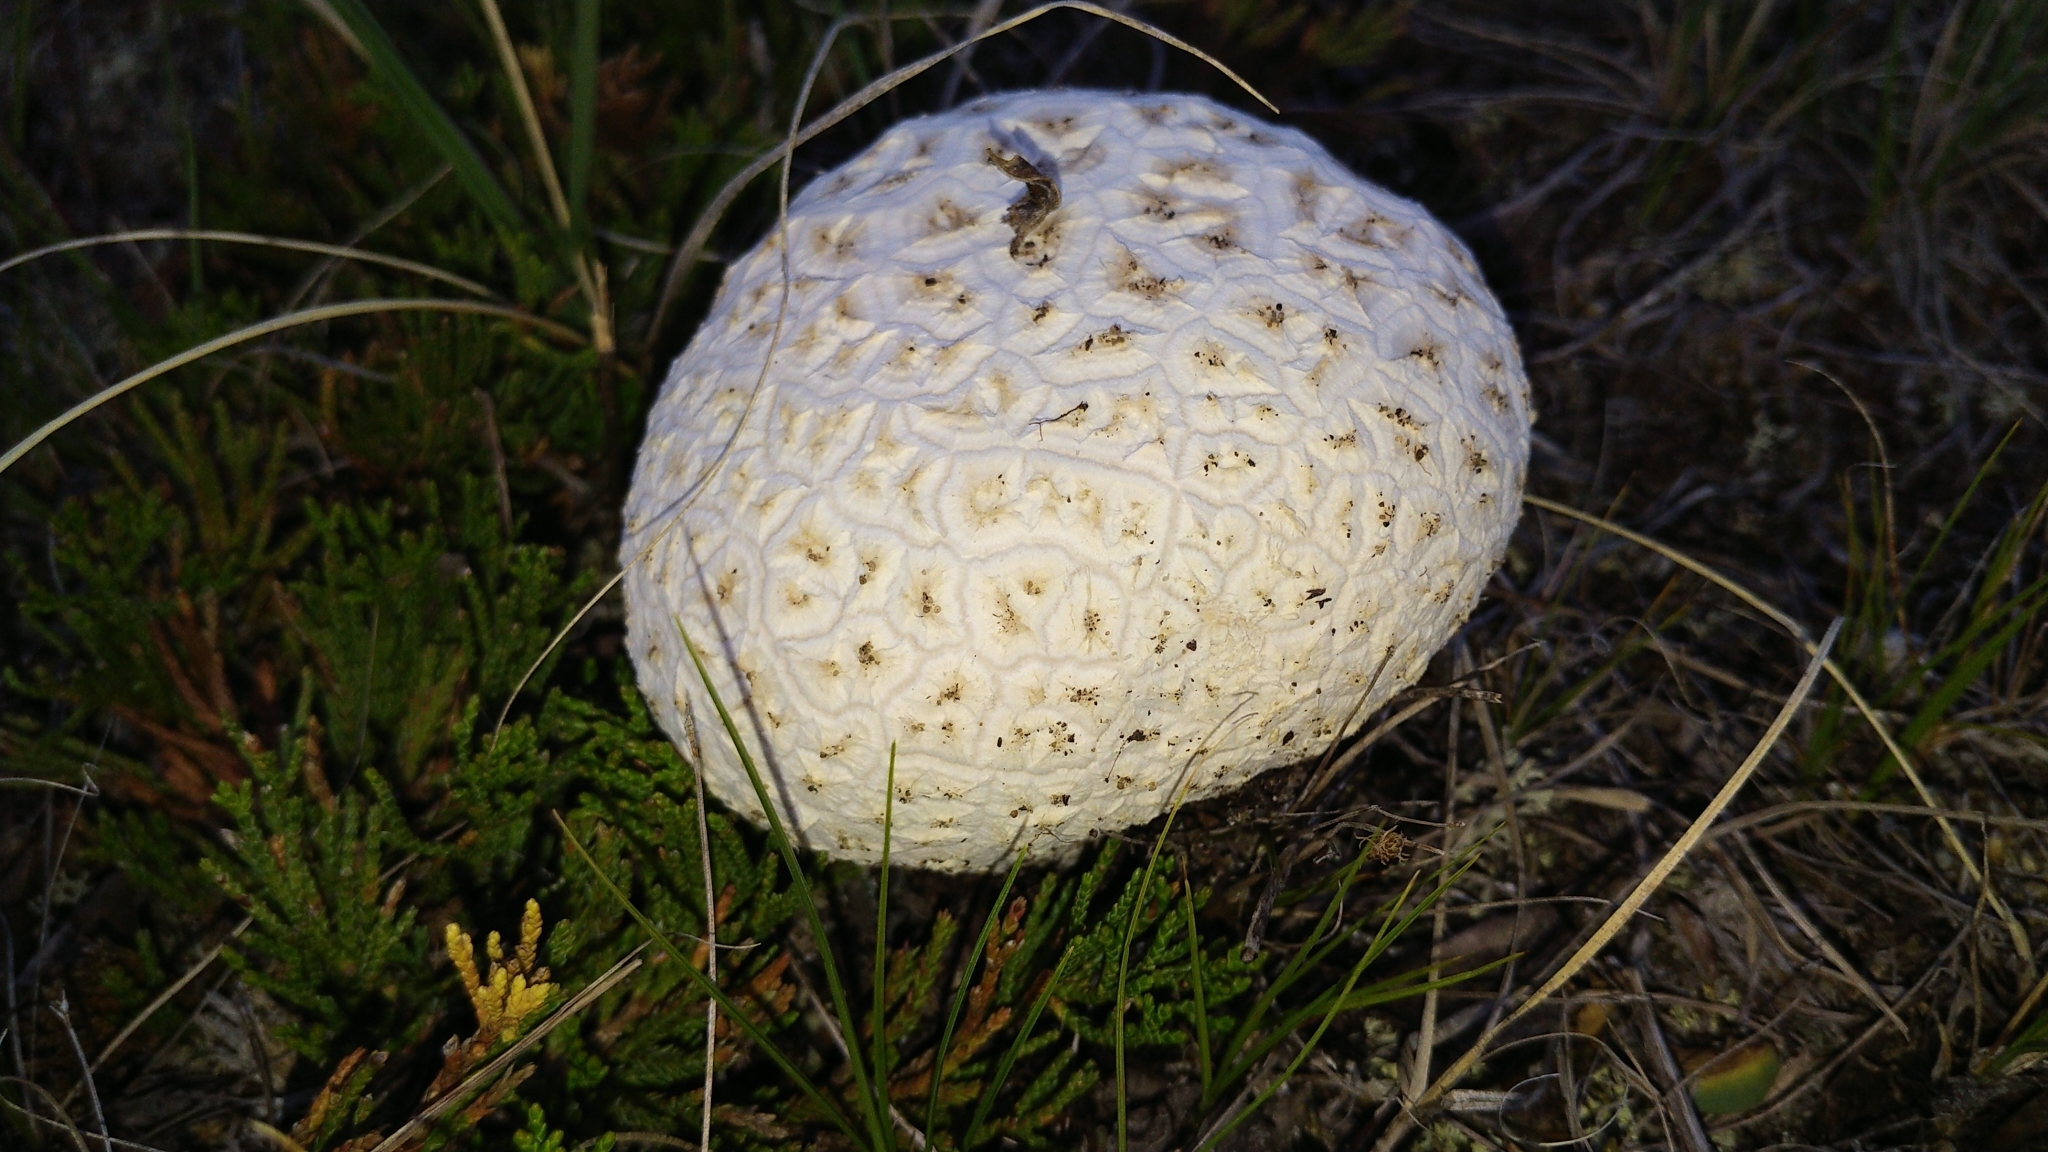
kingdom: Fungi
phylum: Basidiomycota
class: Agaricomycetes
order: Agaricales
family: Lycoperdaceae
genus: Calvatia
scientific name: Calvatia booniana
